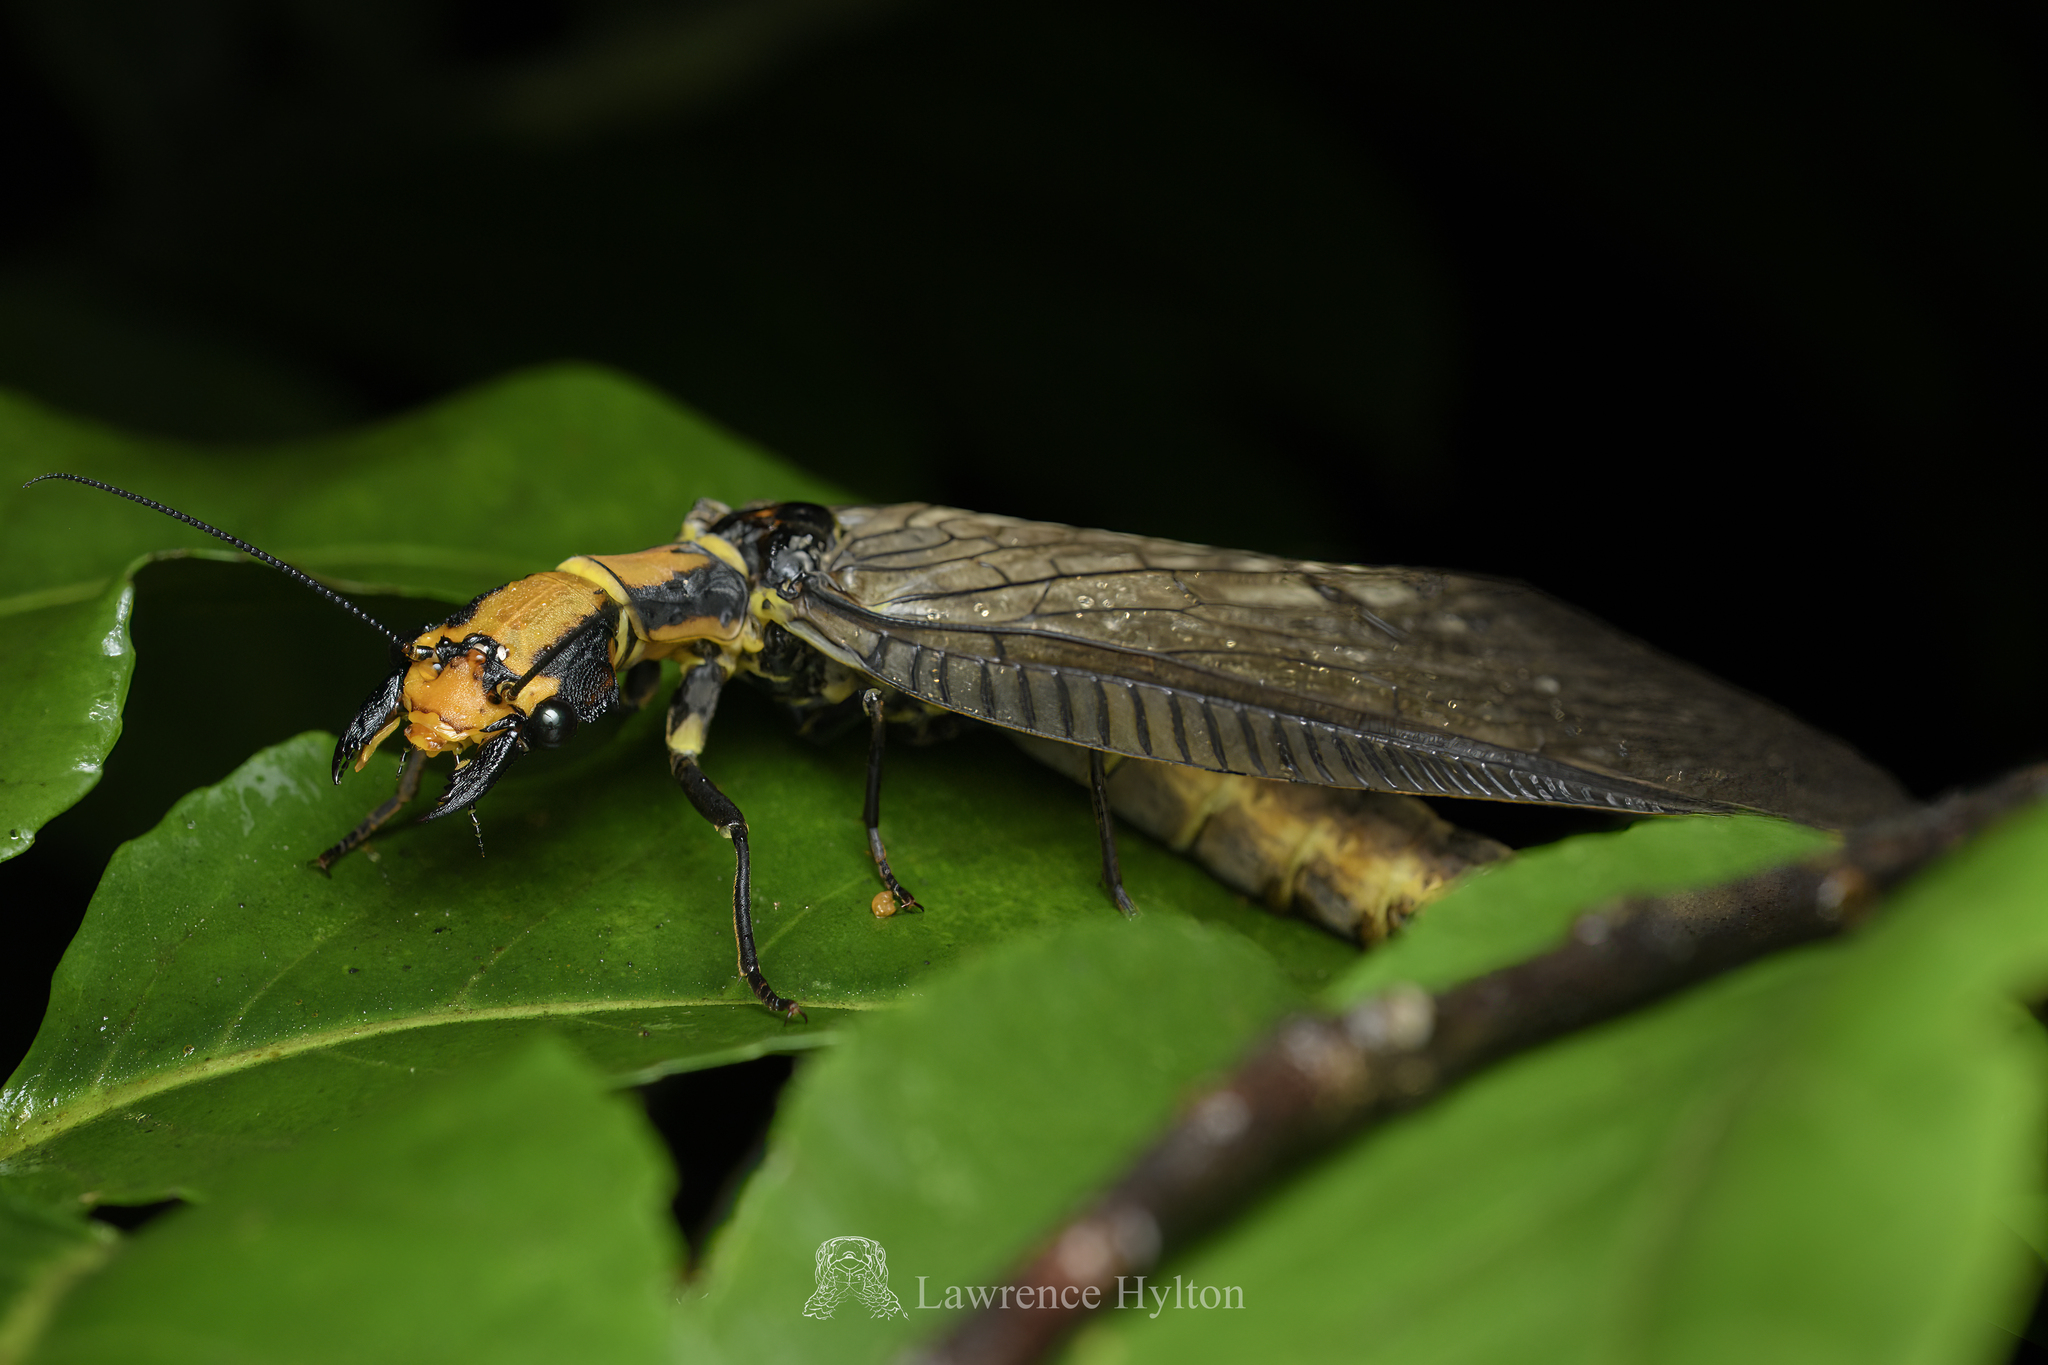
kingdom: Animalia
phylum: Arthropoda
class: Insecta
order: Megaloptera
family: Corydalidae
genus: Neoneuromus
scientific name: Neoneuromus ignobilis
